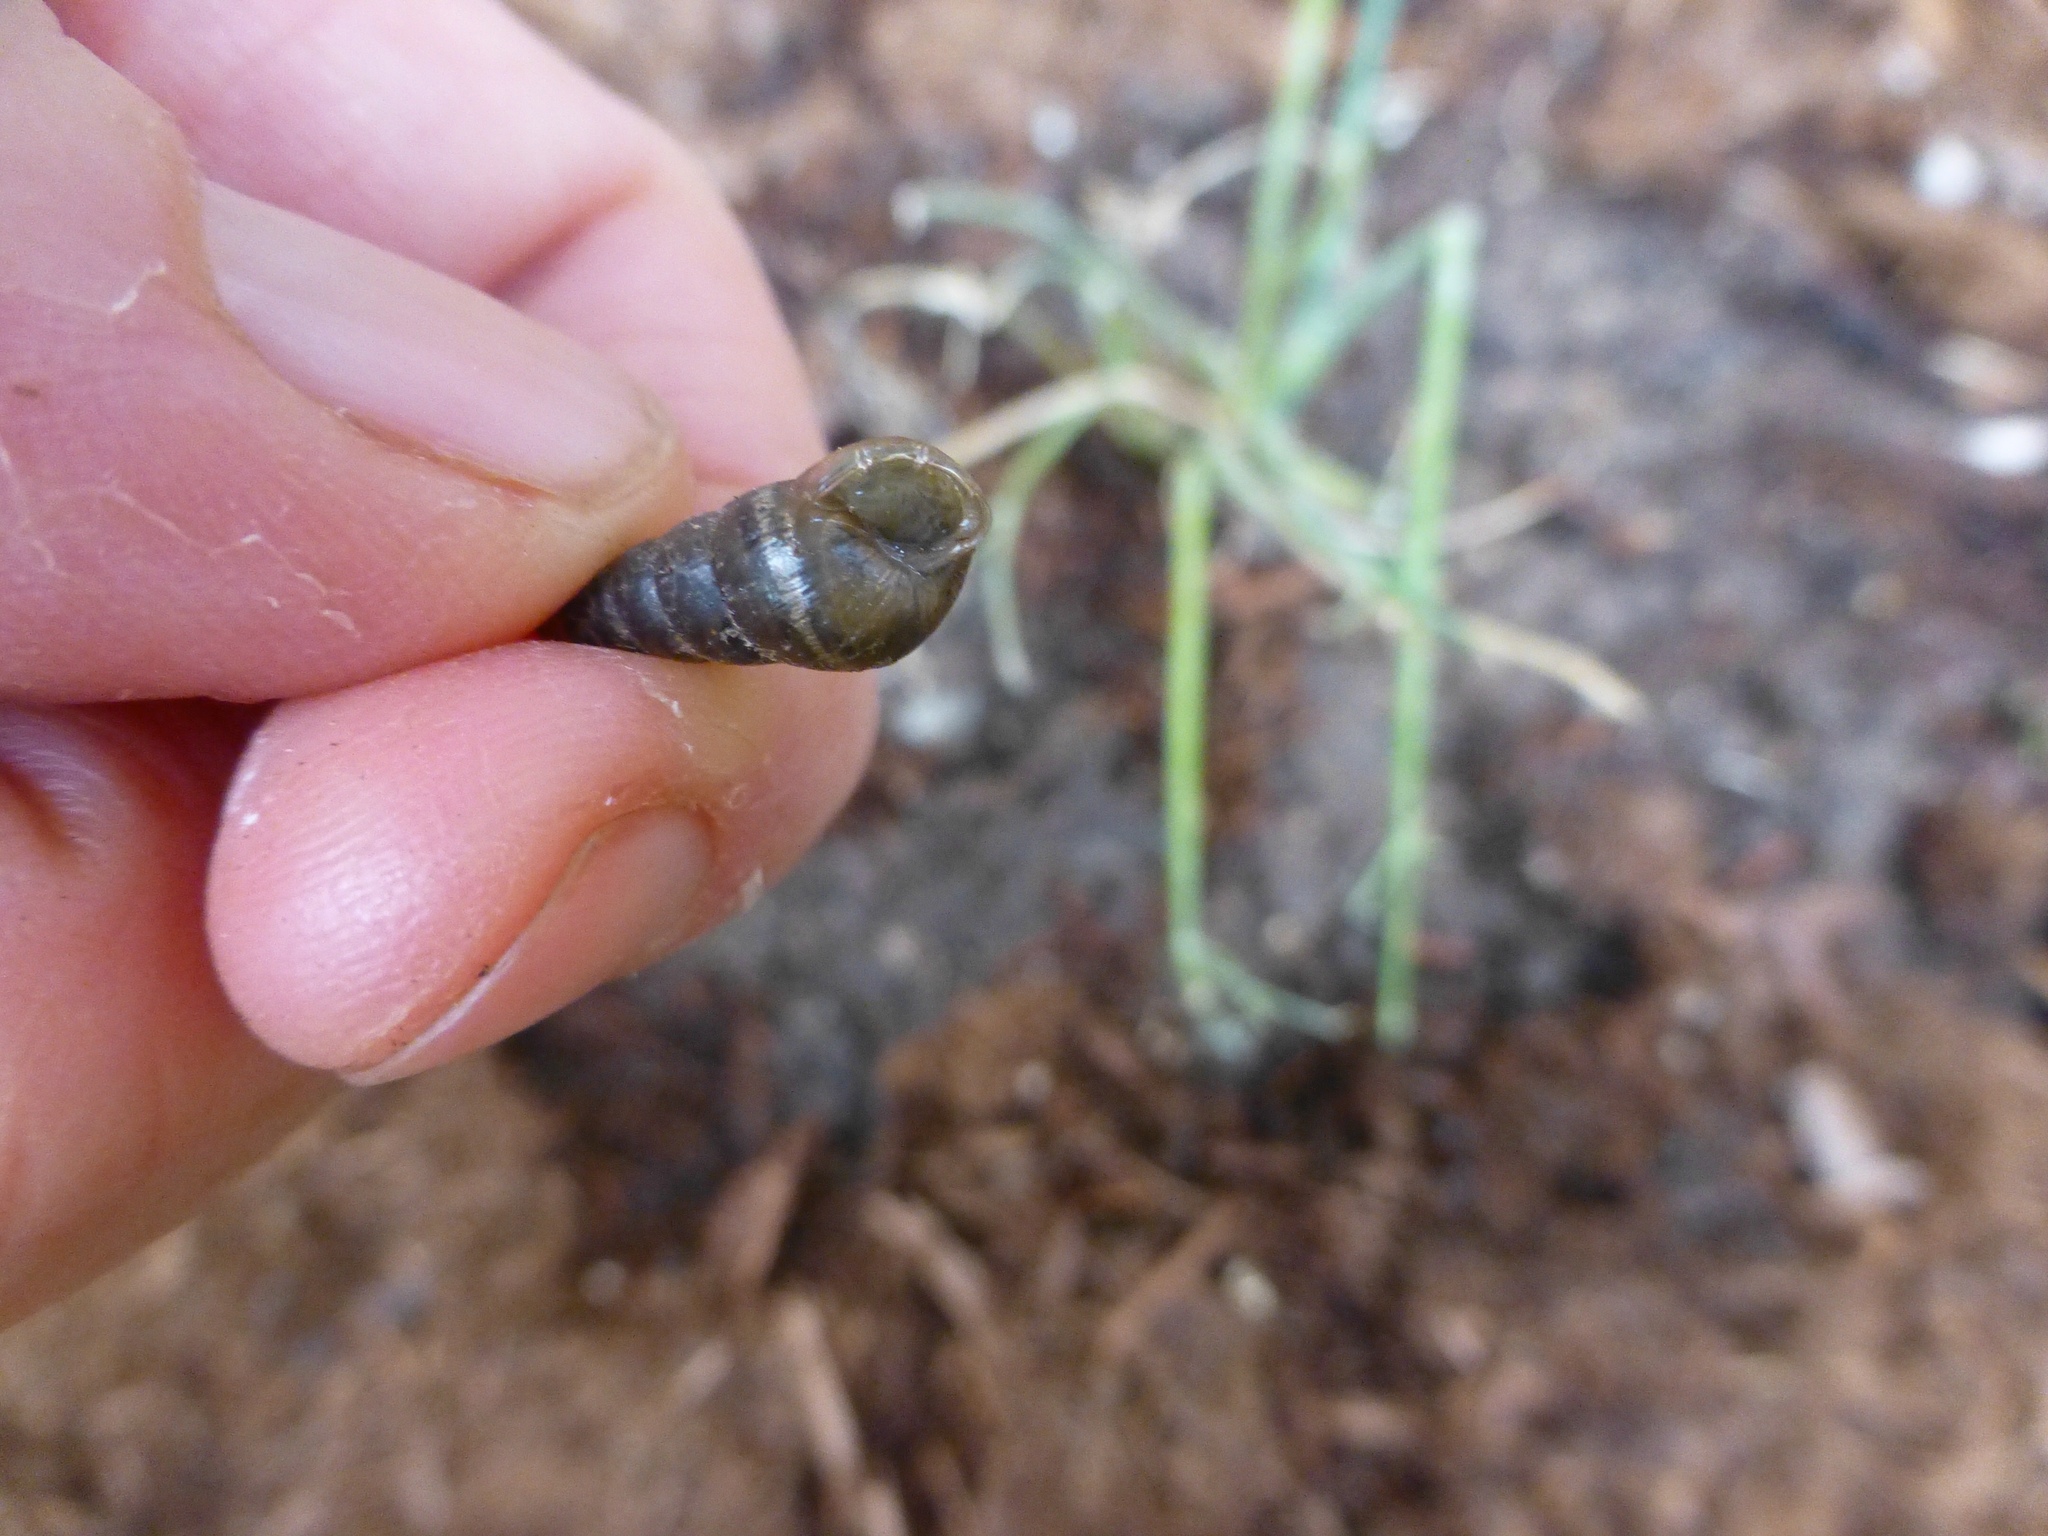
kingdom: Animalia
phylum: Mollusca
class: Gastropoda
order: Stylommatophora
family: Achatinidae
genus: Rumina
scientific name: Rumina decollata
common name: Decollate snail
